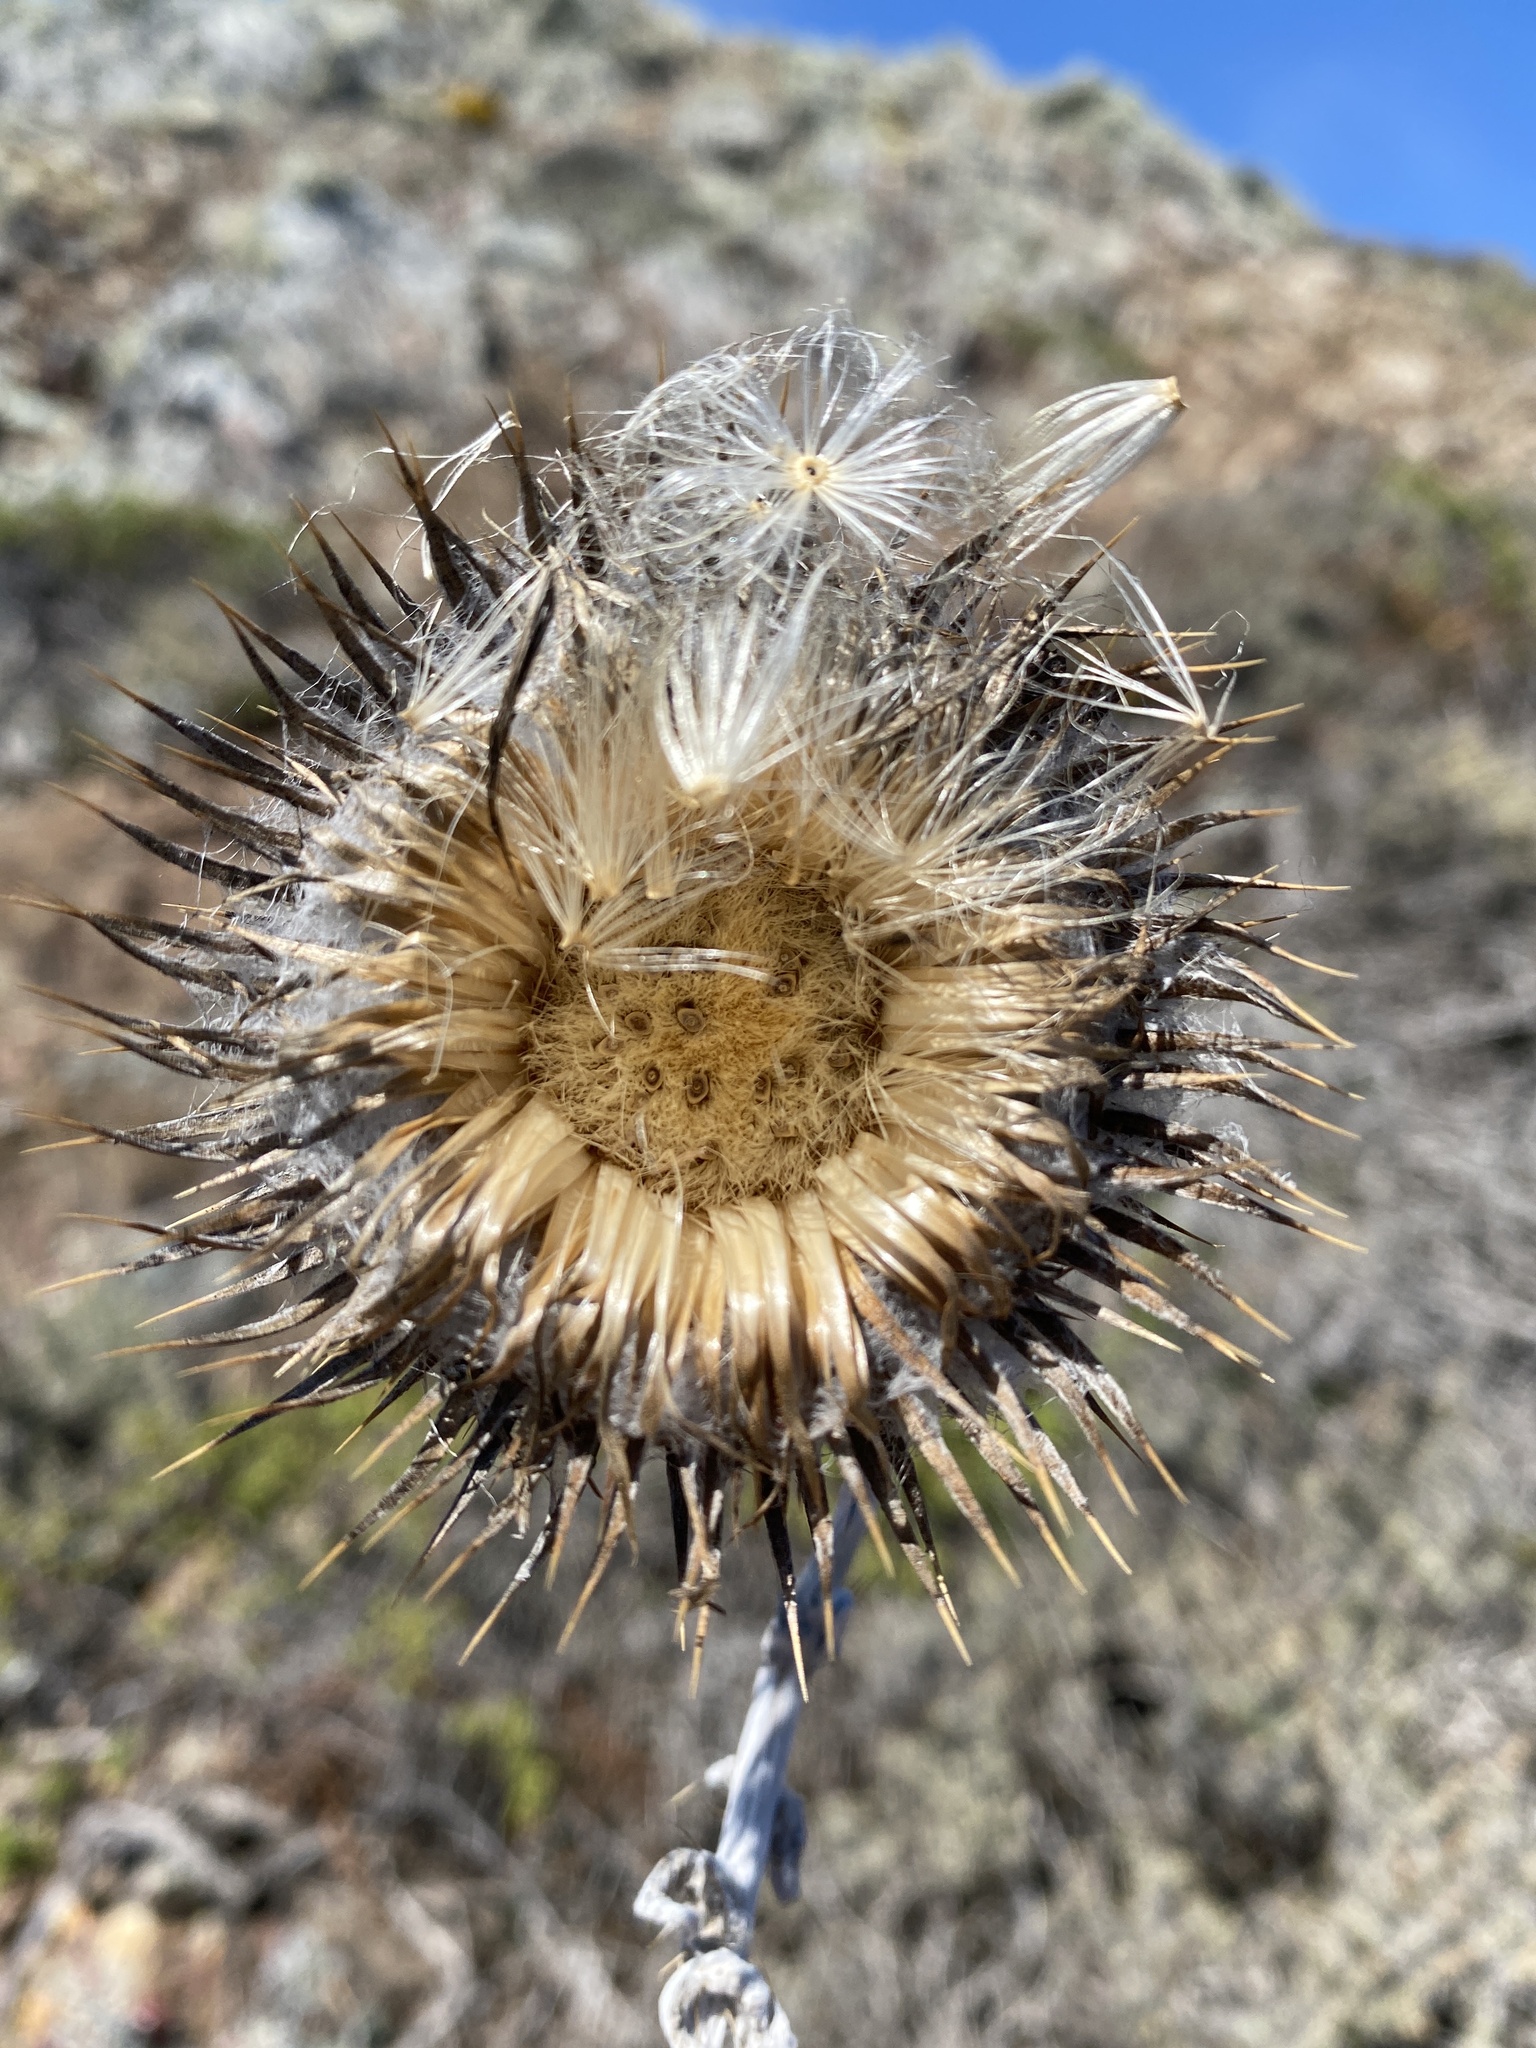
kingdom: Plantae
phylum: Tracheophyta
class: Magnoliopsida
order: Asterales
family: Asteraceae
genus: Cirsium
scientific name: Cirsium occidentale
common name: Western thistle
